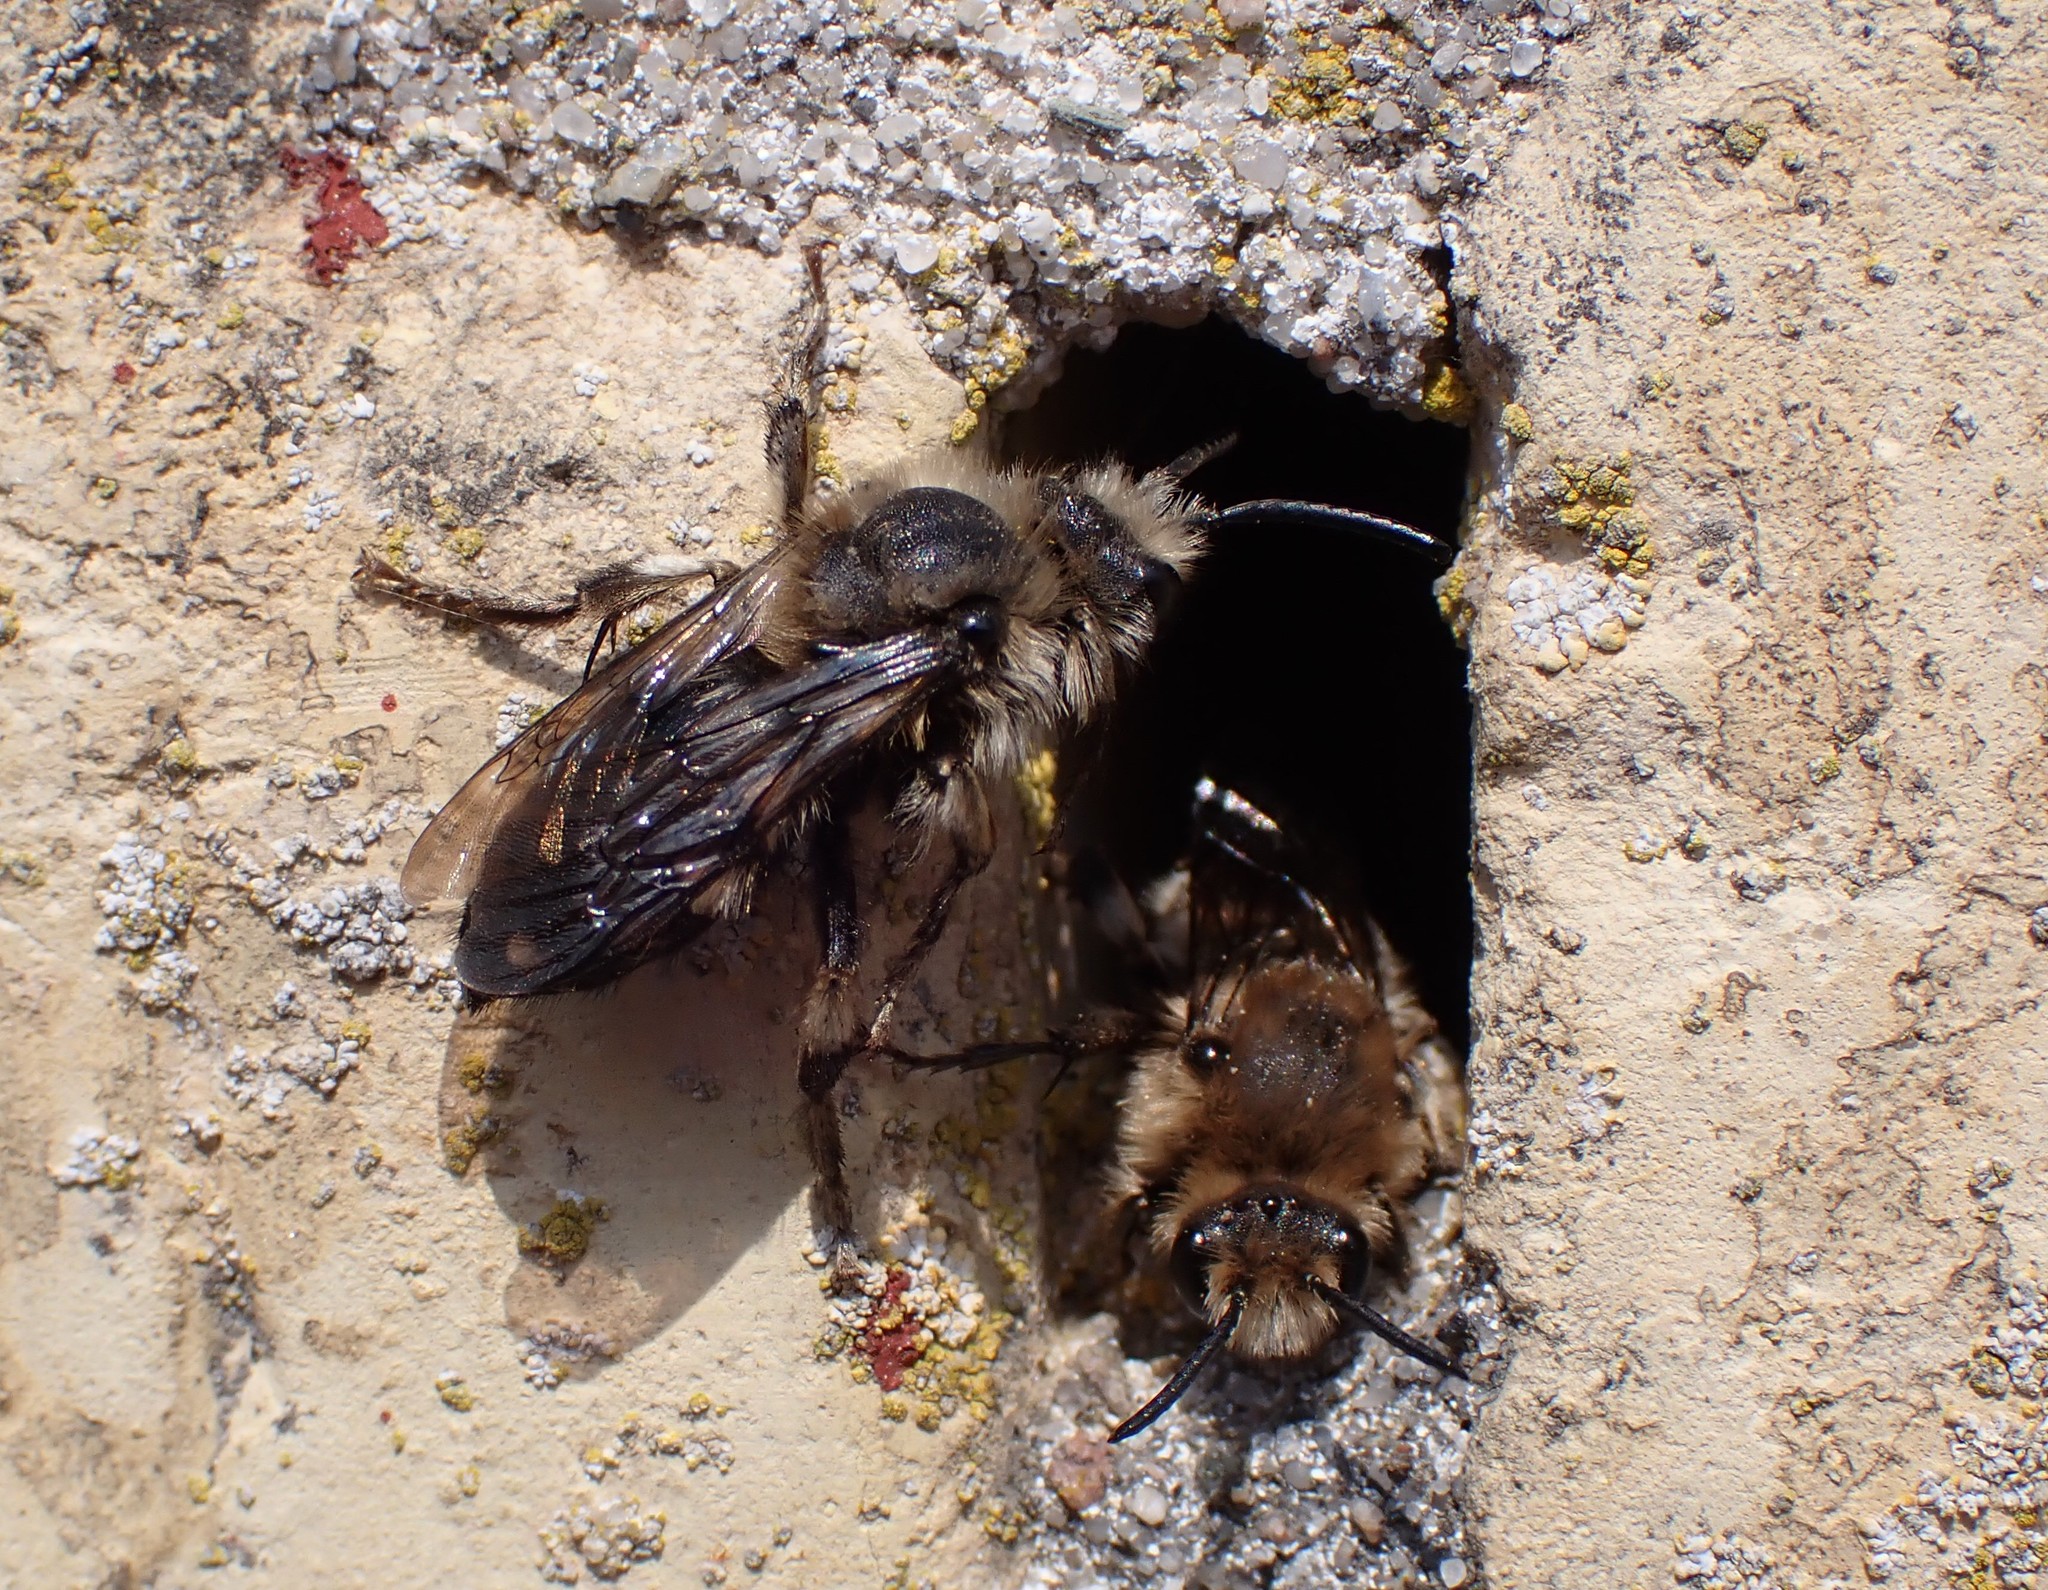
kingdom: Animalia
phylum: Arthropoda
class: Insecta
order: Hymenoptera
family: Apidae
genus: Melecta
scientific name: Melecta albifrons
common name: Common mourning bee
